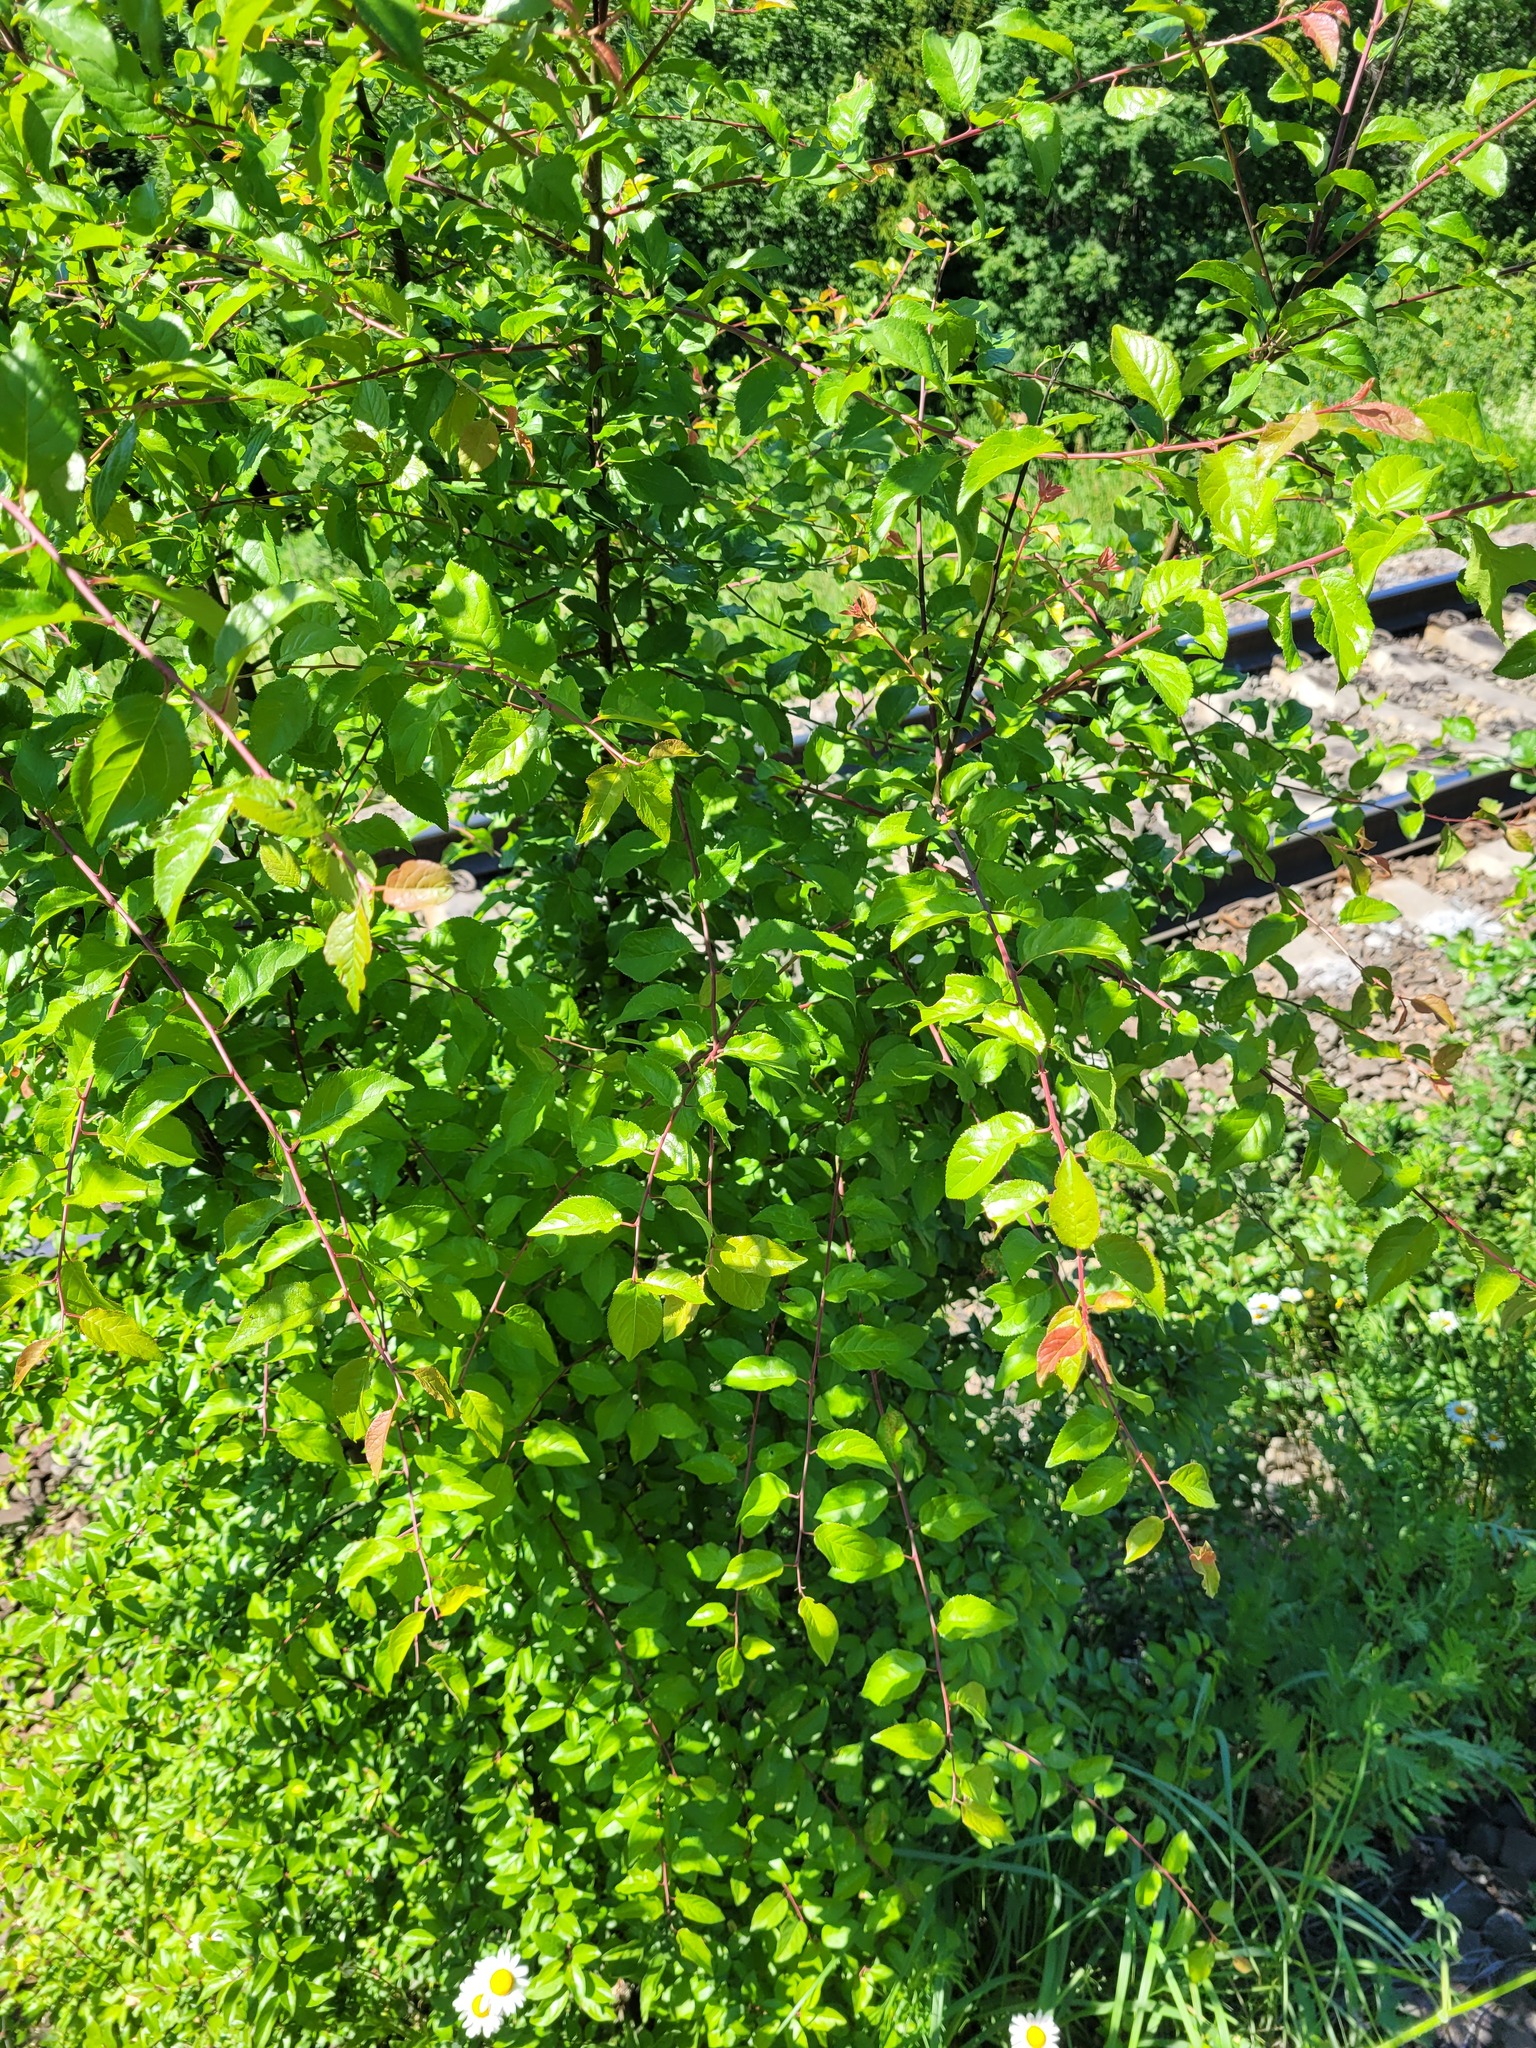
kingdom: Plantae
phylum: Tracheophyta
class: Magnoliopsida
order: Rosales
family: Rosaceae
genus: Prunus
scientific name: Prunus cerasifera
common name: Cherry plum
